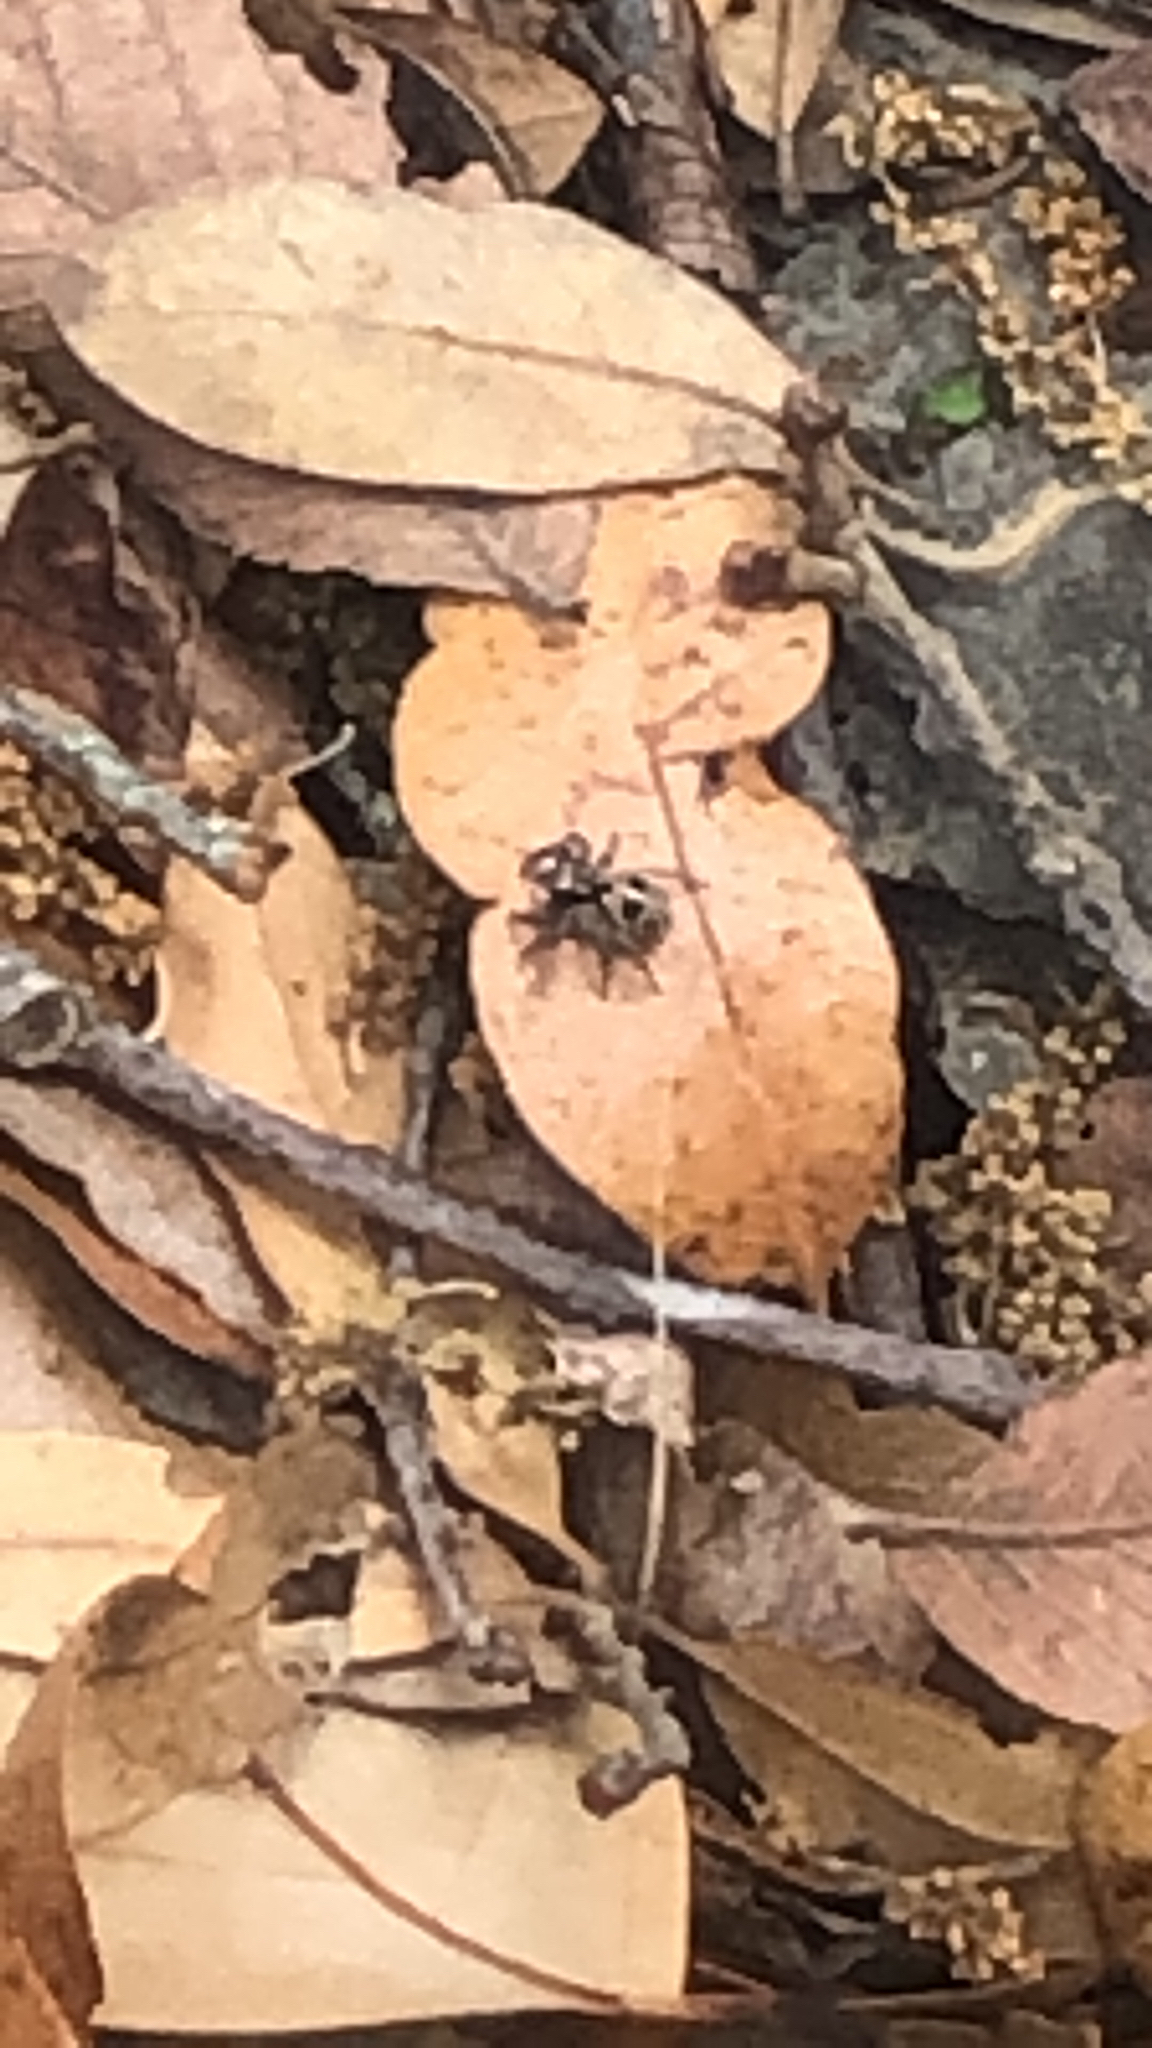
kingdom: Animalia
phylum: Arthropoda
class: Arachnida
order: Araneae
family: Salticidae
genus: Anasaitis
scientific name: Anasaitis canosa
